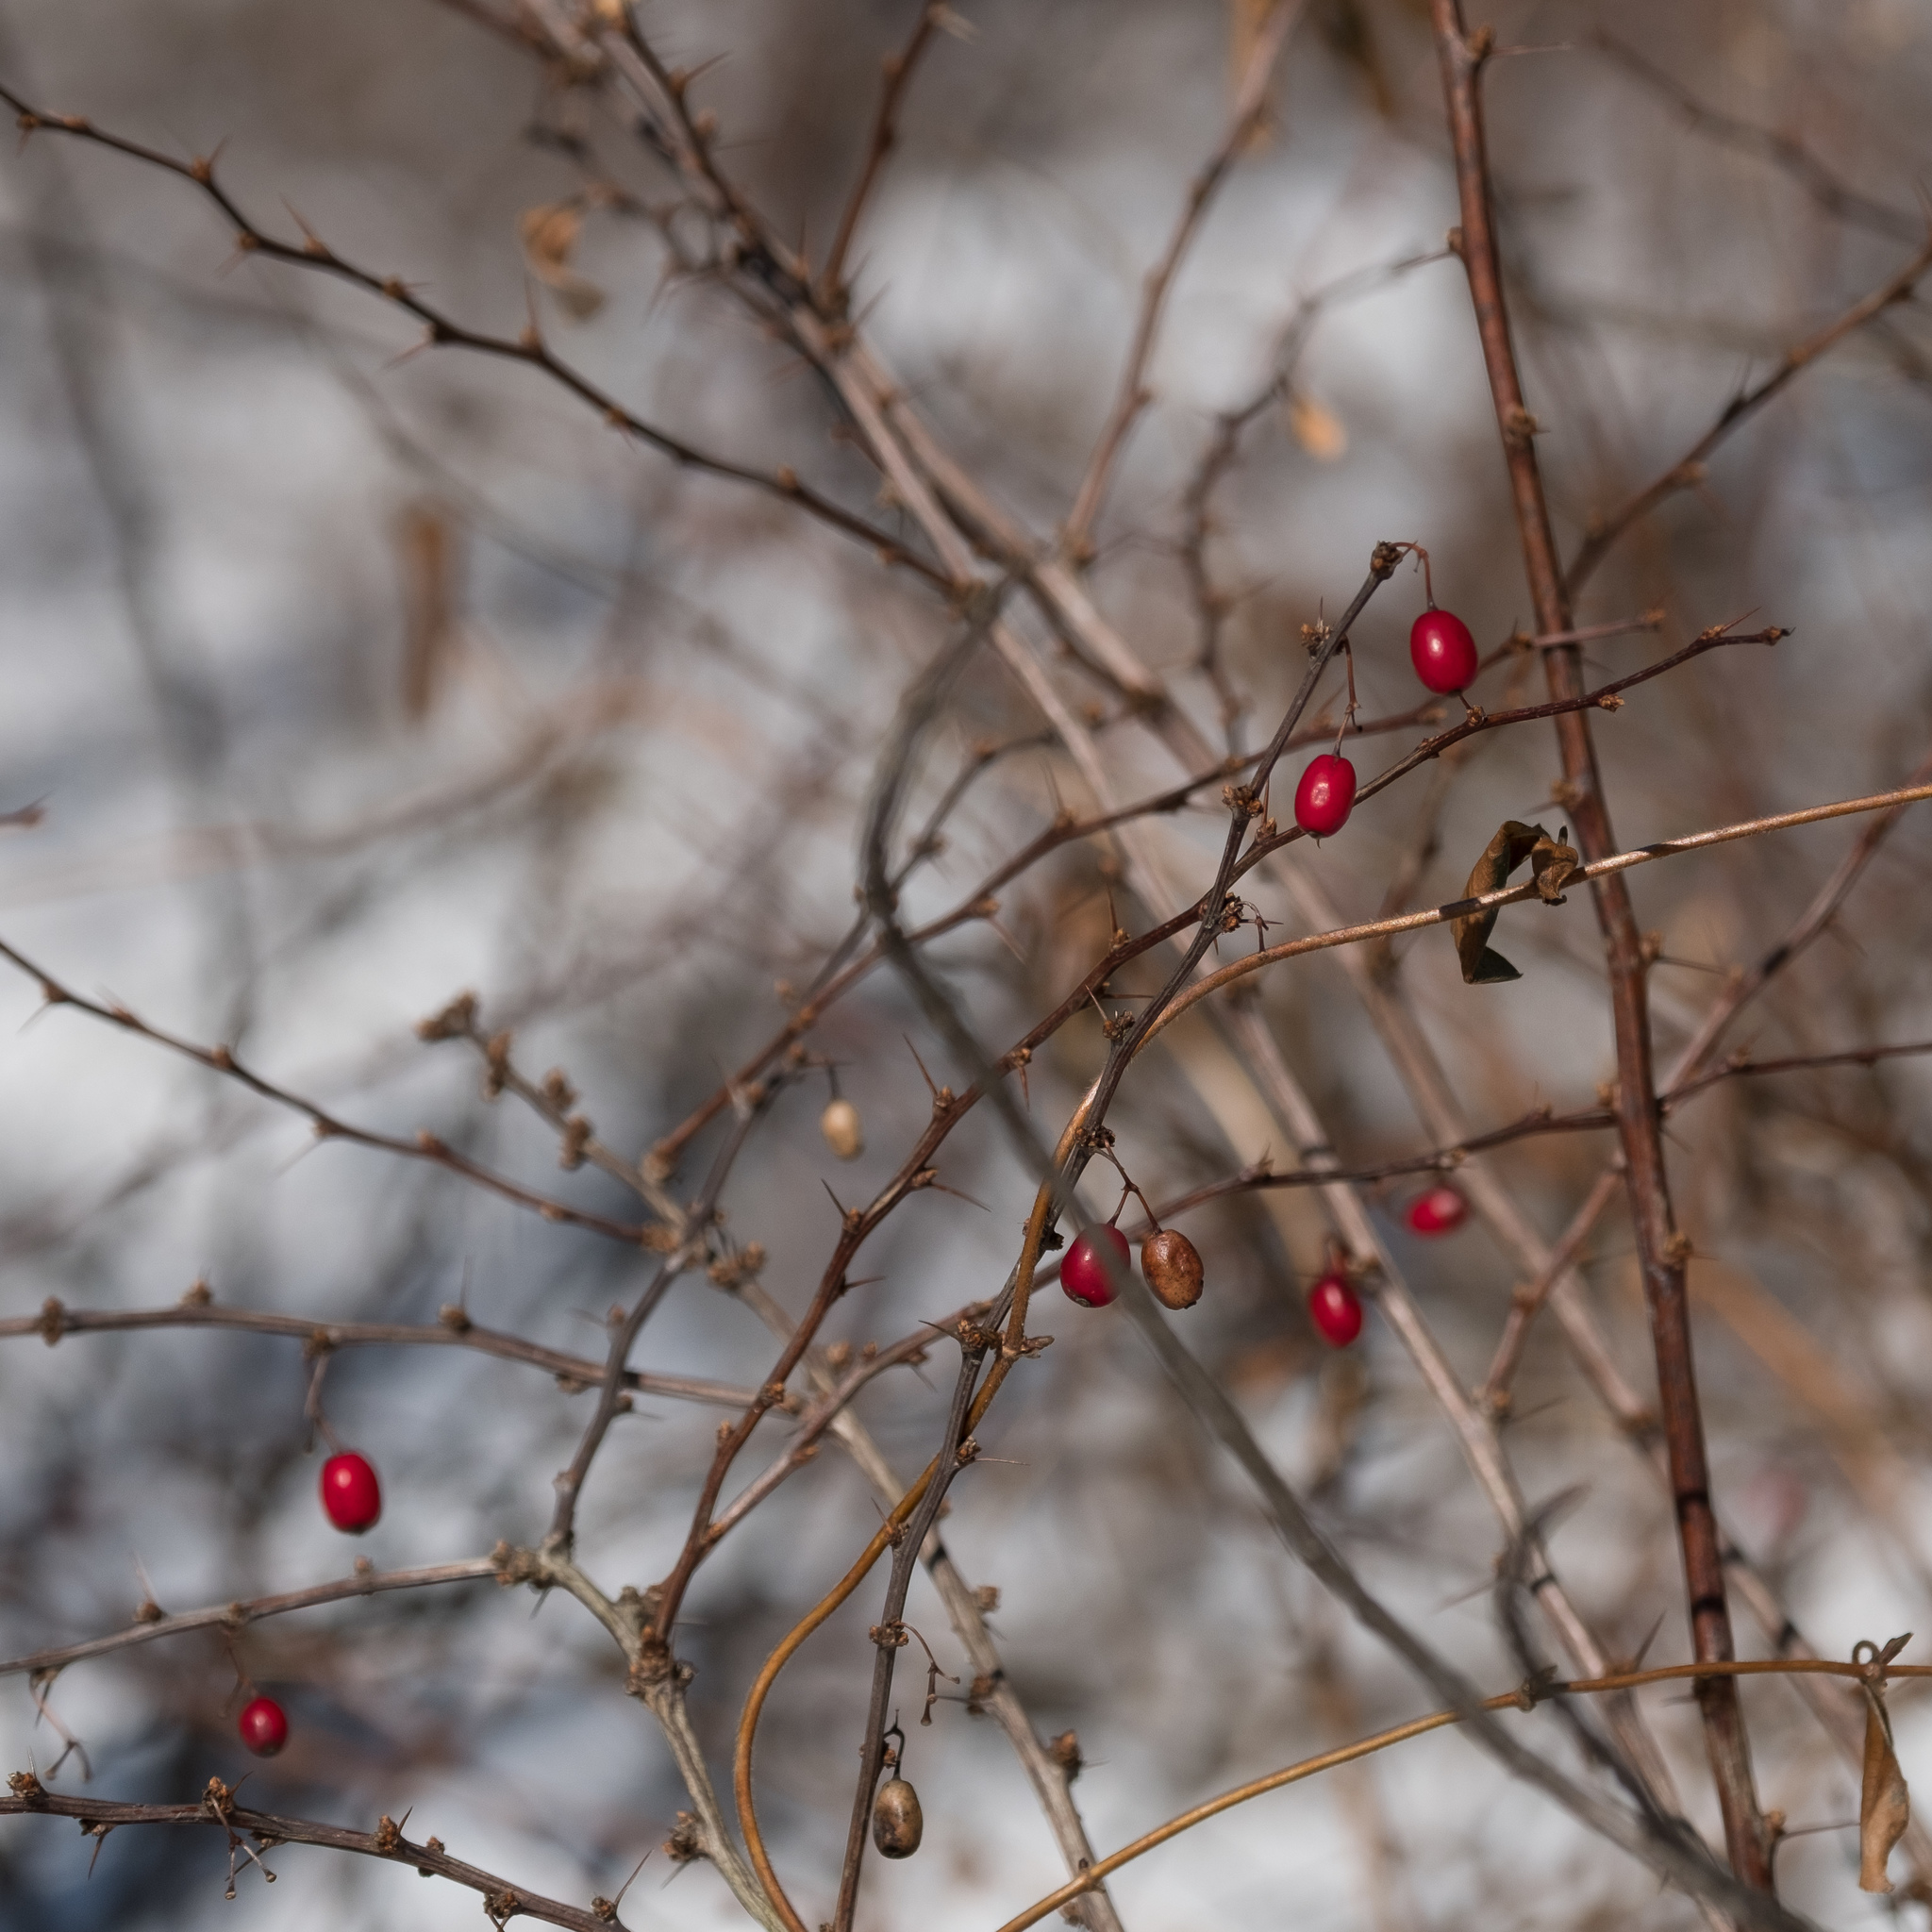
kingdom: Plantae
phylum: Tracheophyta
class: Magnoliopsida
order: Ranunculales
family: Berberidaceae
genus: Berberis
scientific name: Berberis thunbergii
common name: Japanese barberry
